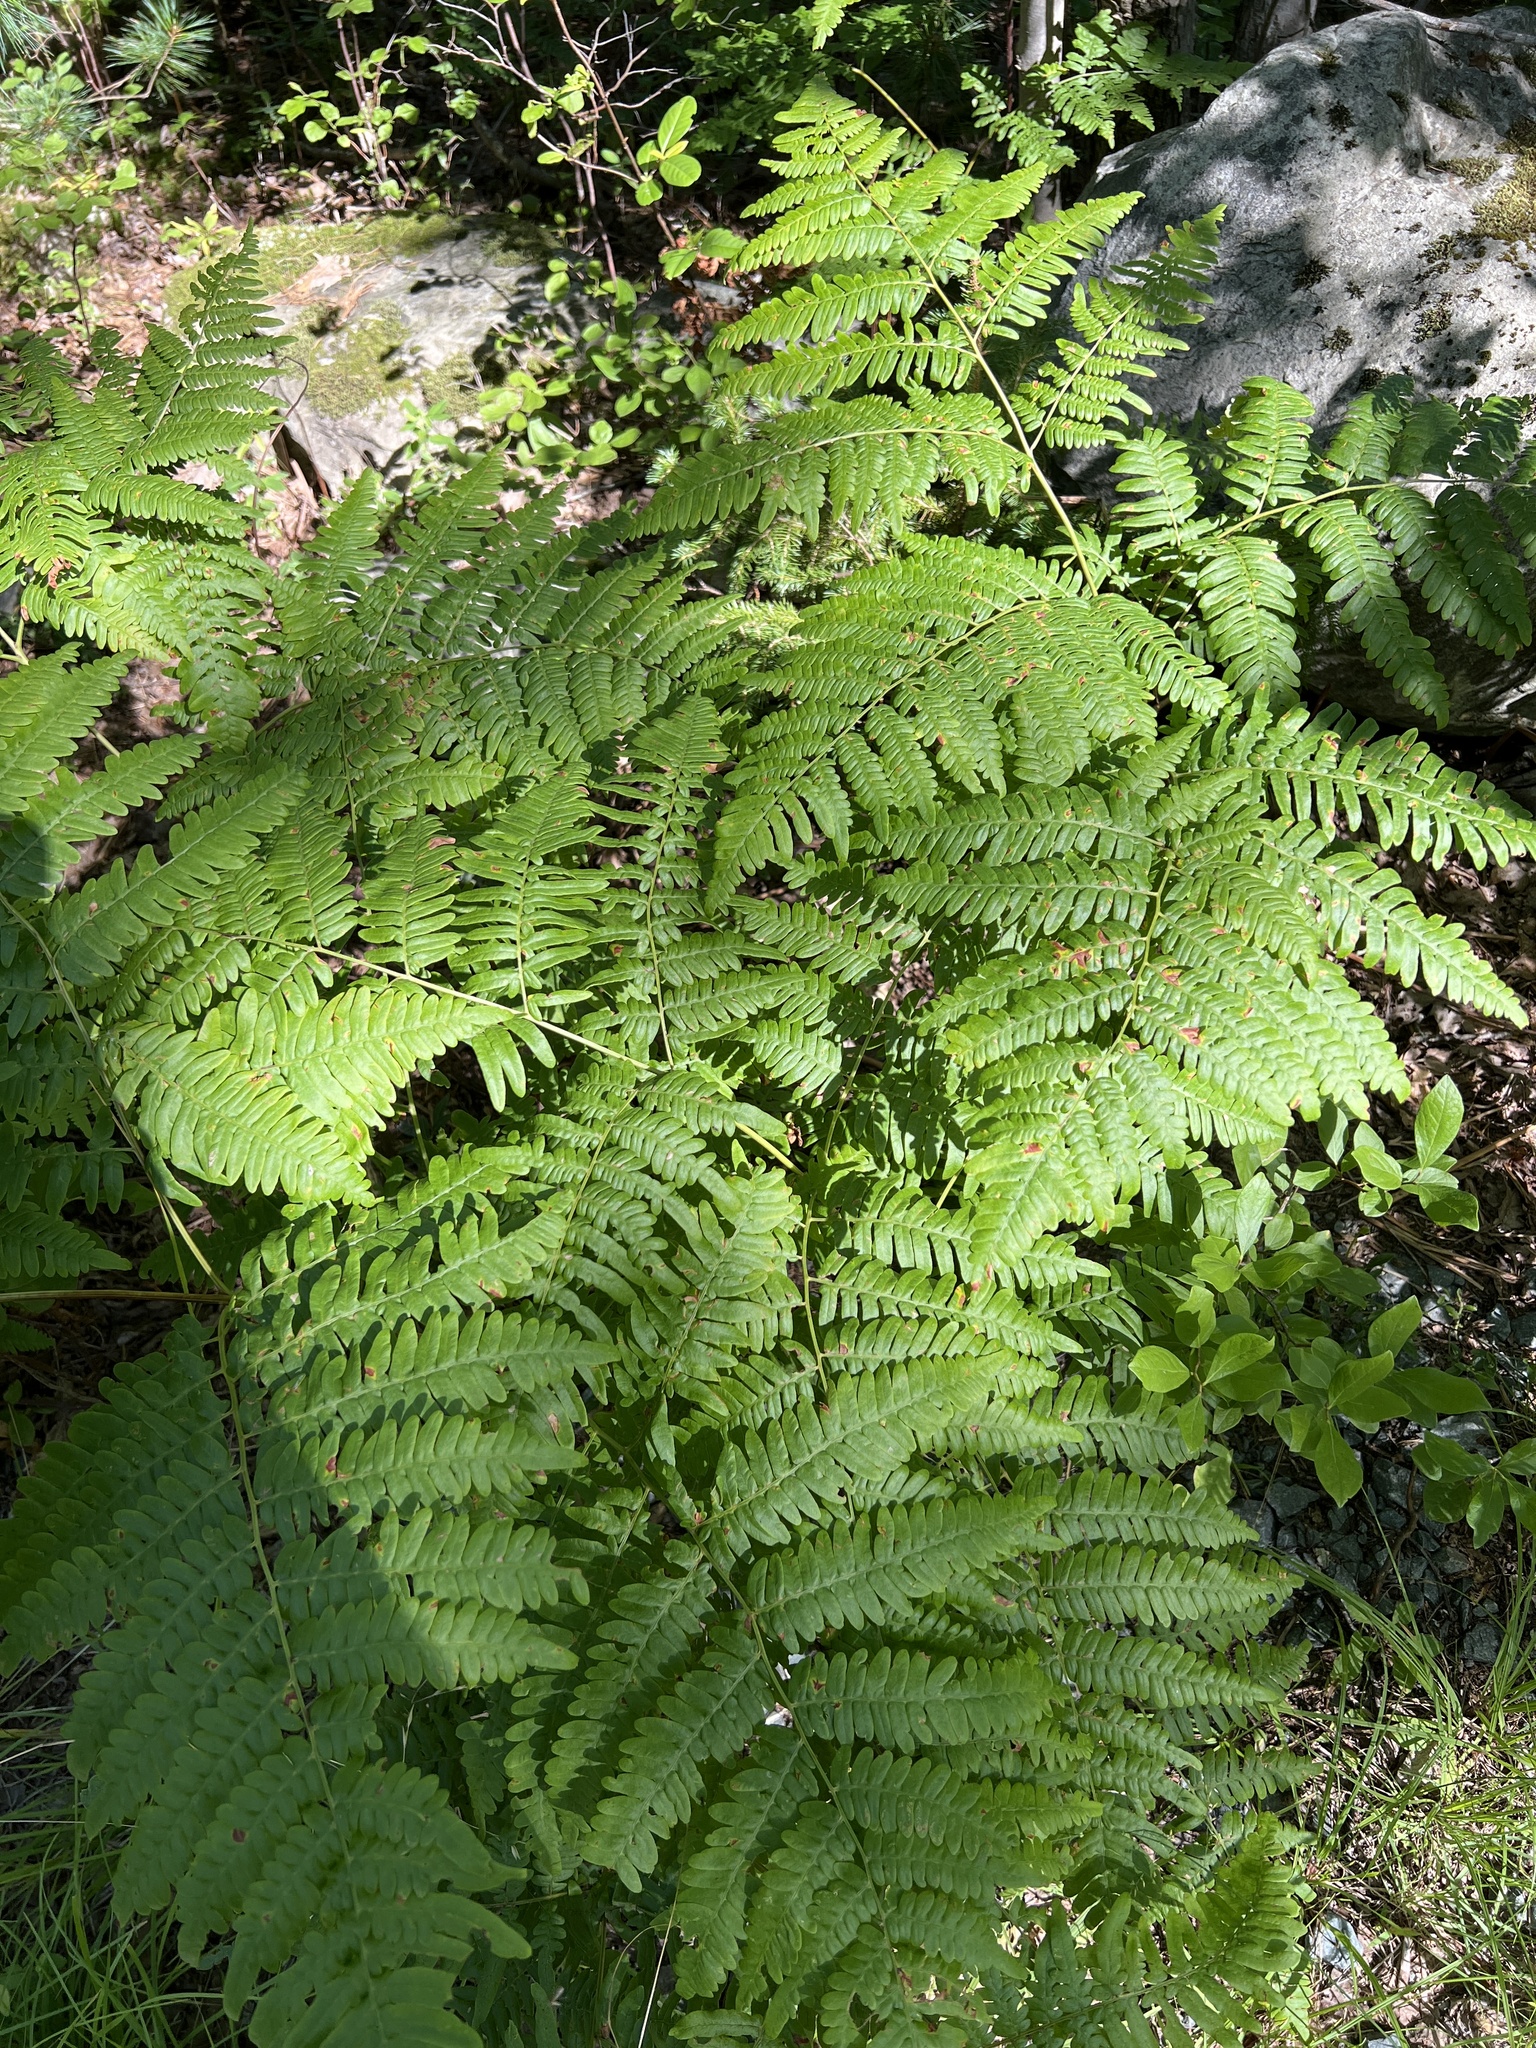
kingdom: Plantae
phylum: Tracheophyta
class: Polypodiopsida
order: Polypodiales
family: Dennstaedtiaceae
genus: Pteridium
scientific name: Pteridium aquilinum
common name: Bracken
